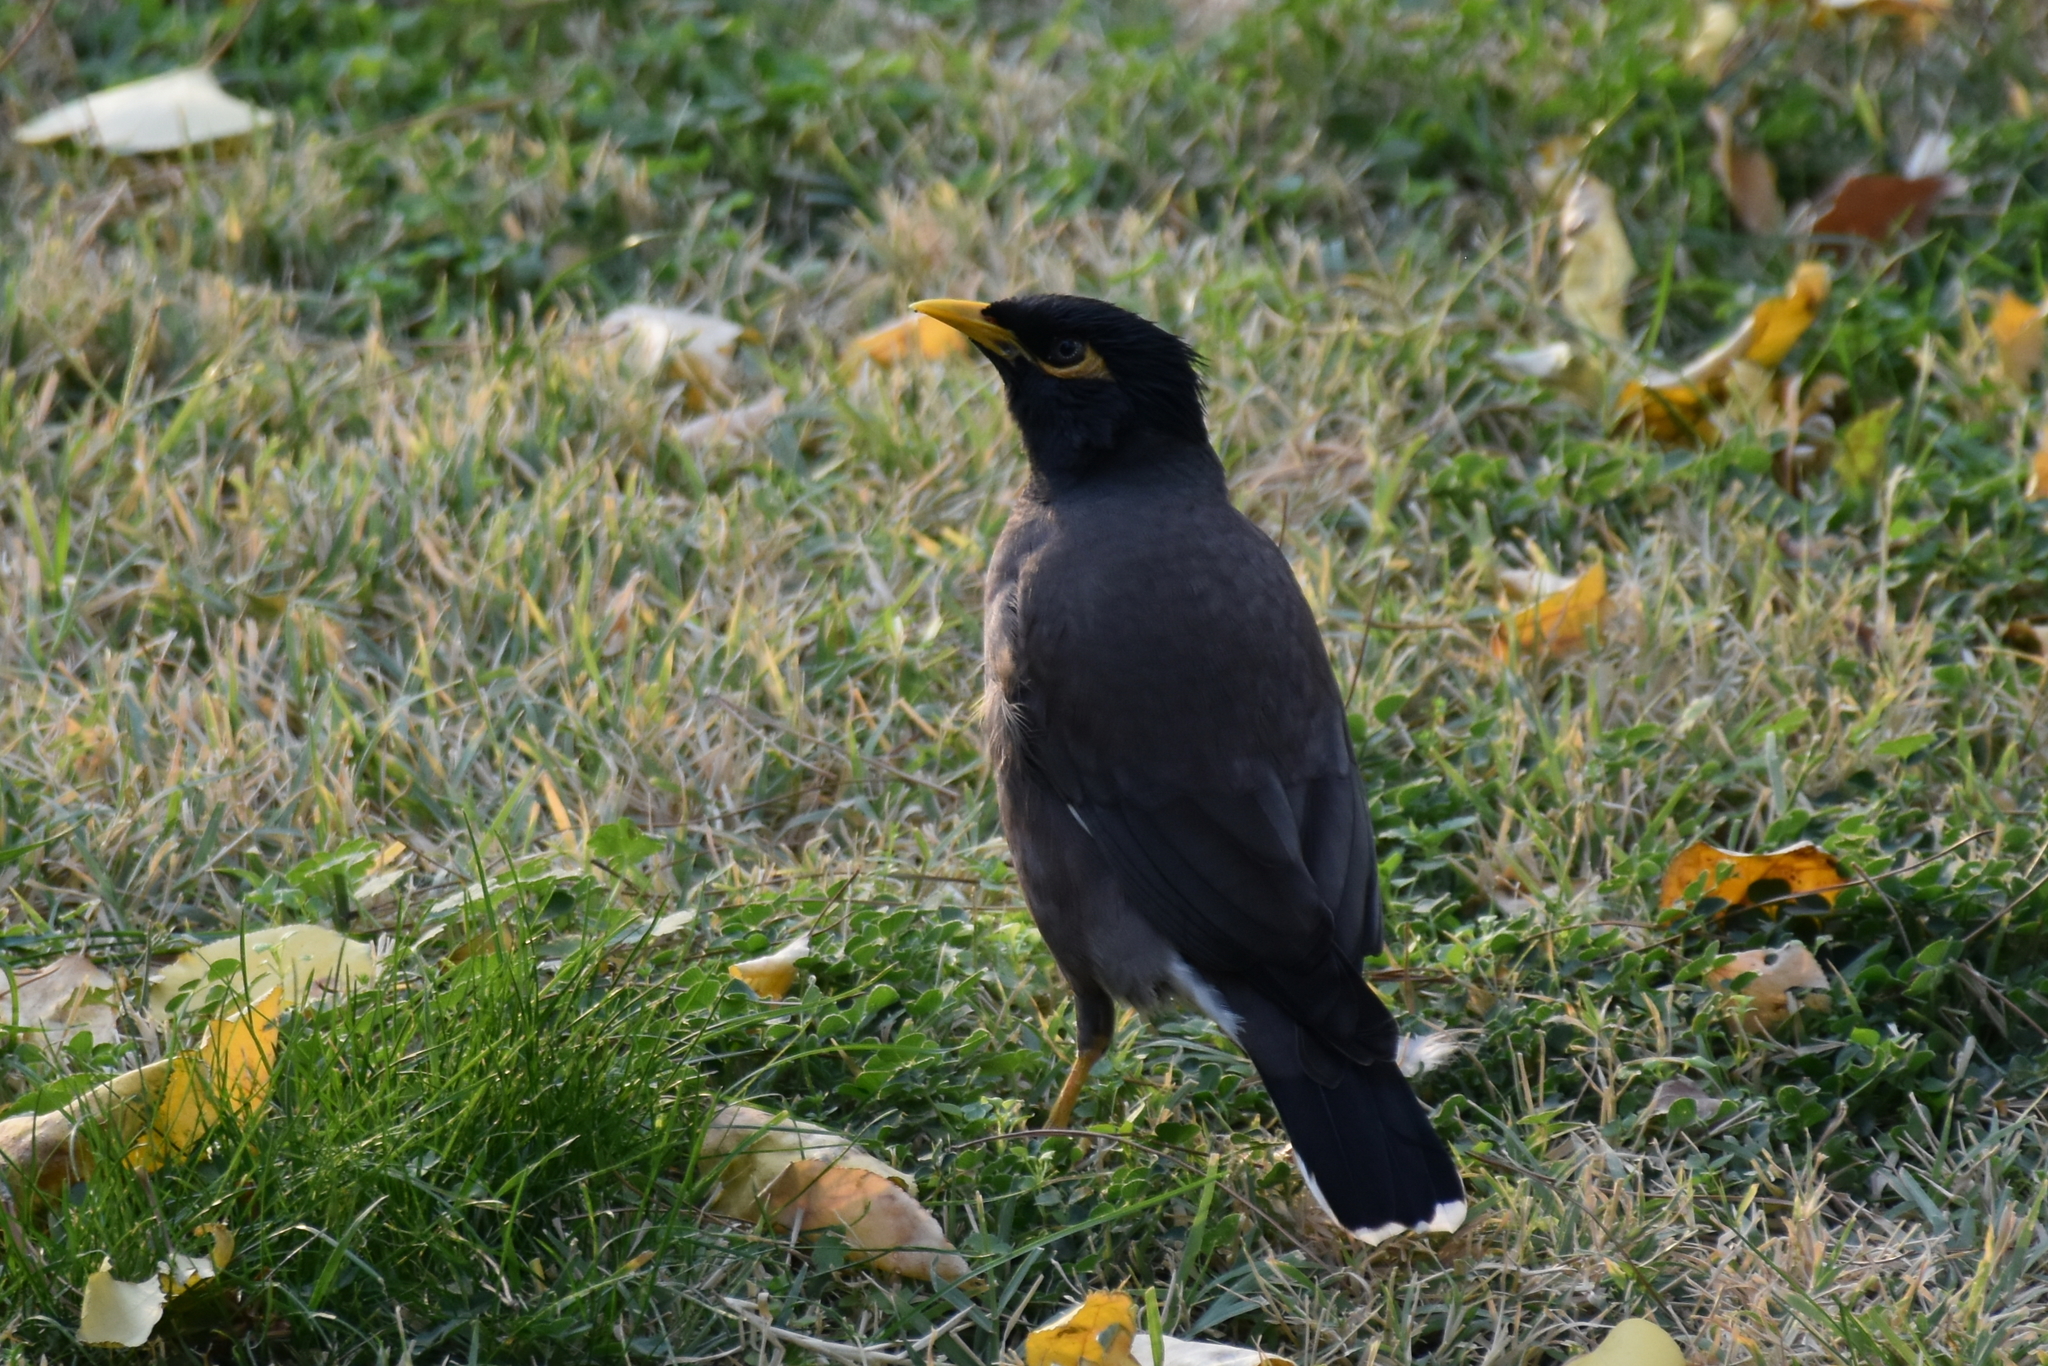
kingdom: Animalia
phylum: Chordata
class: Aves
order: Passeriformes
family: Sturnidae
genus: Acridotheres
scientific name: Acridotheres tristis
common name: Common myna
